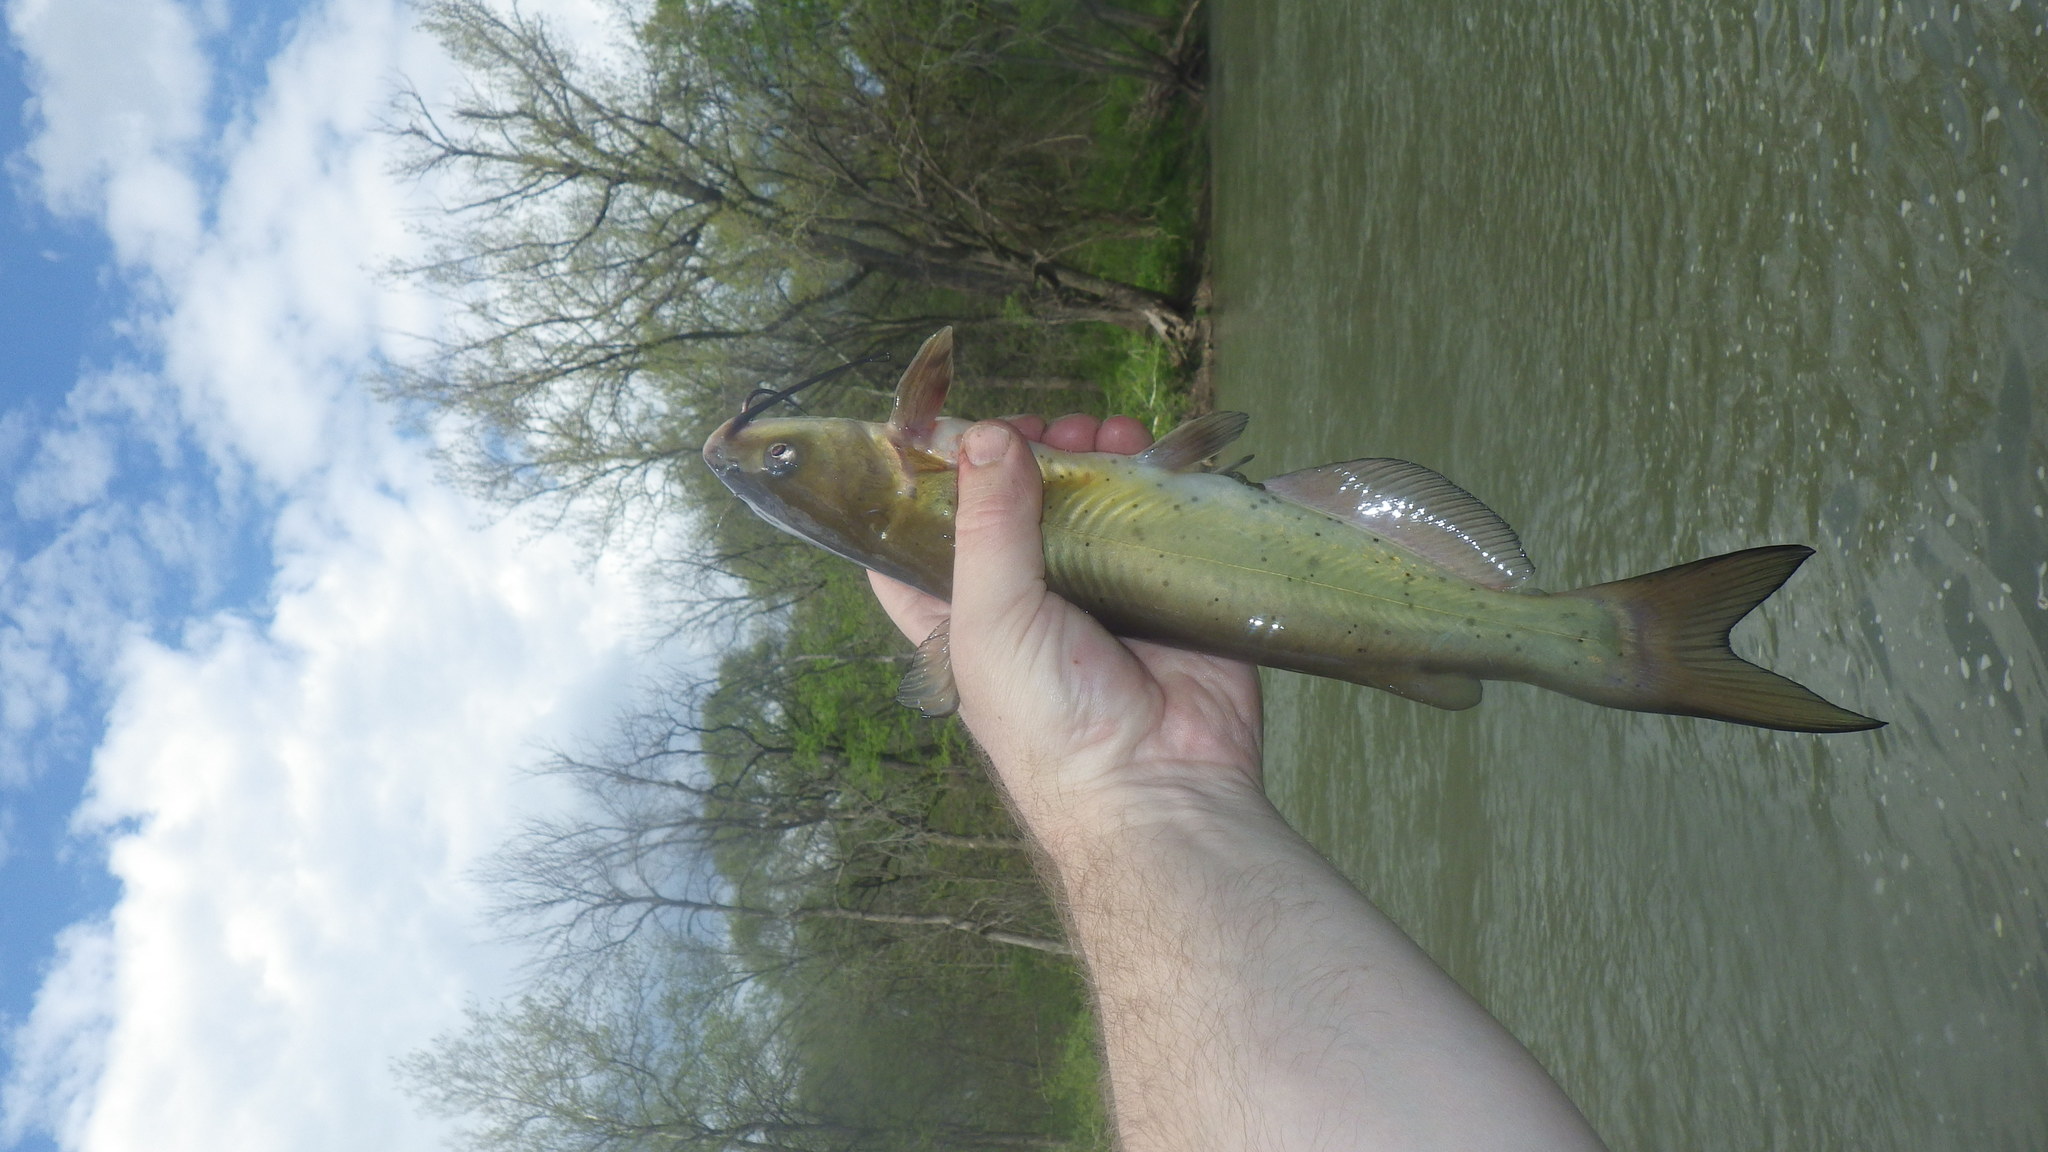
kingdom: Animalia
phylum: Chordata
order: Siluriformes
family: Ictaluridae
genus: Ictalurus
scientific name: Ictalurus punctatus
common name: Channel catfish
